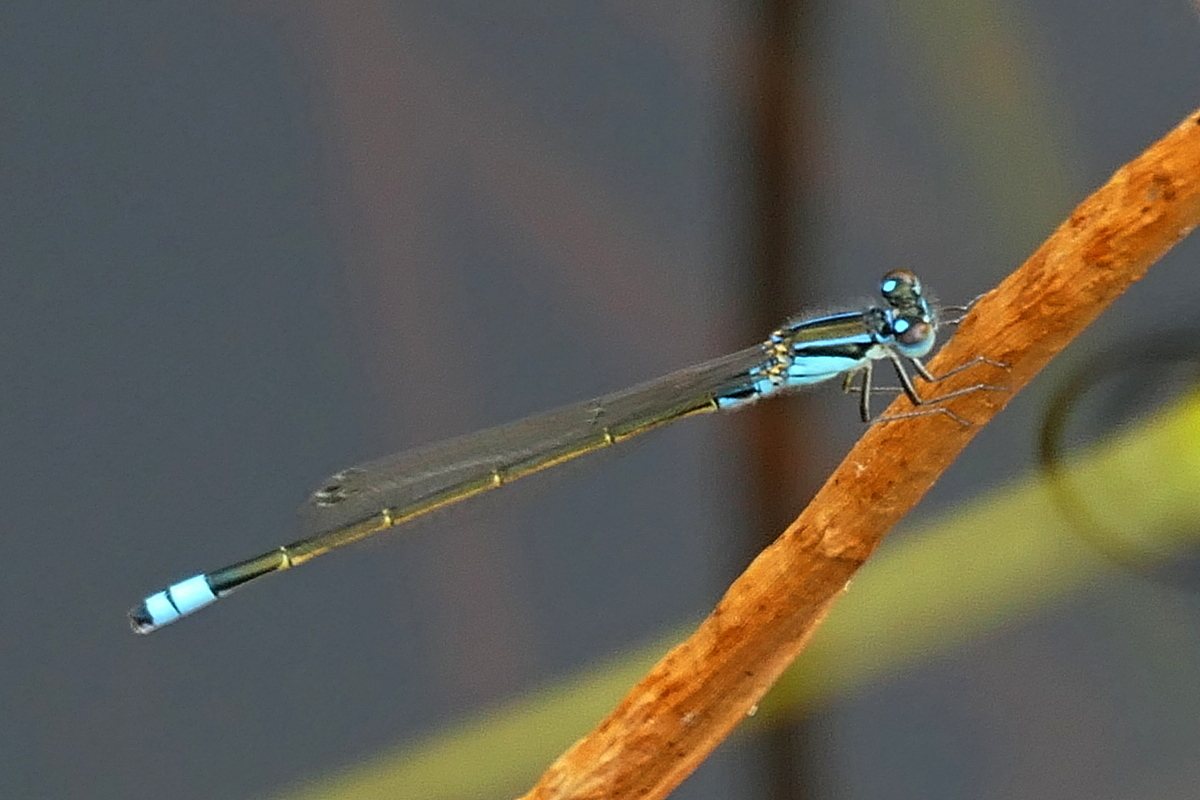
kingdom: Animalia
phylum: Arthropoda
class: Insecta
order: Odonata
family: Coenagrionidae
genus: Ischnura
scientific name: Ischnura heterosticta
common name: Common bluetail
